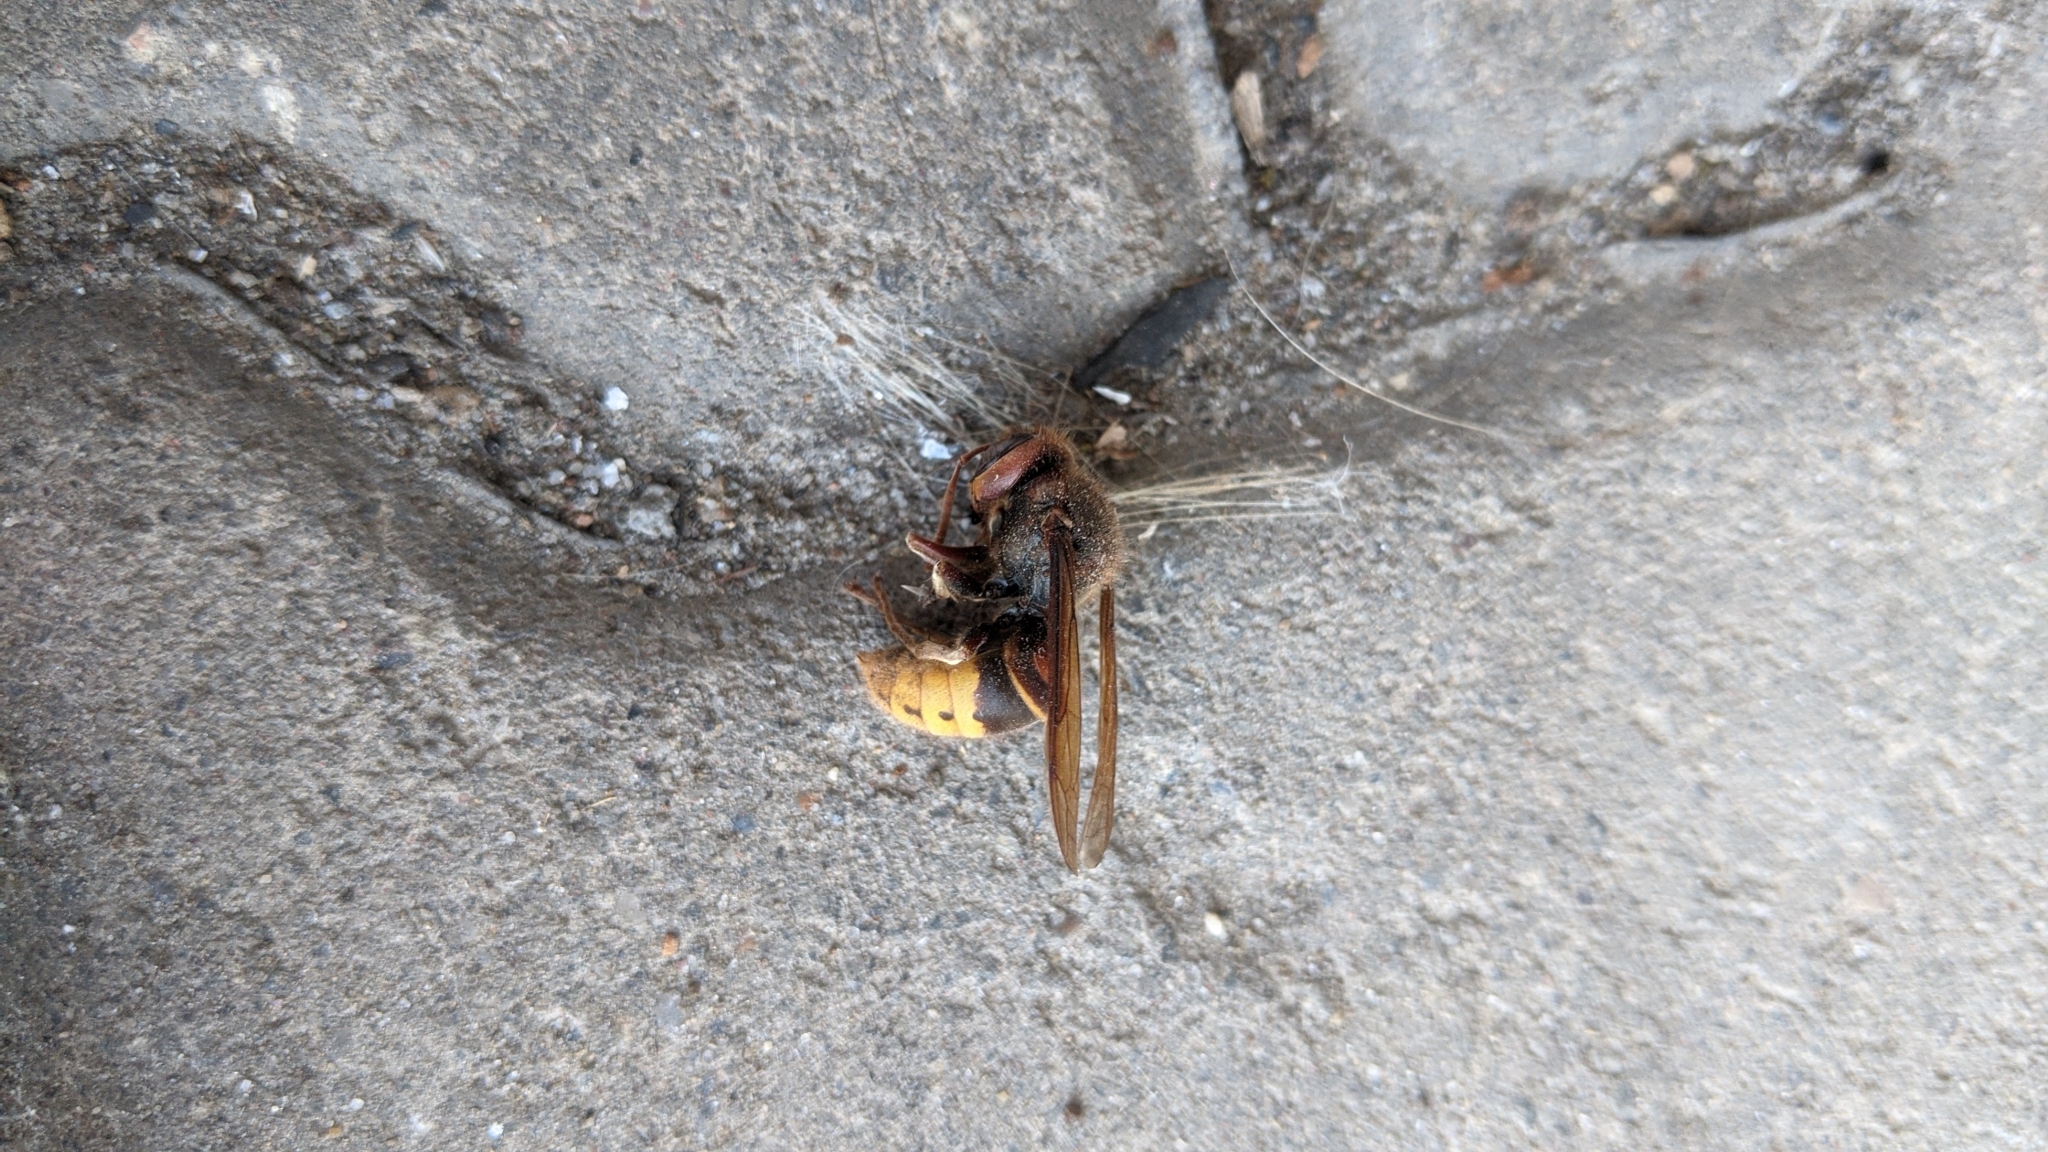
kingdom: Animalia
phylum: Arthropoda
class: Insecta
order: Hymenoptera
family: Vespidae
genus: Vespa
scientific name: Vespa crabro
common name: Hornet
